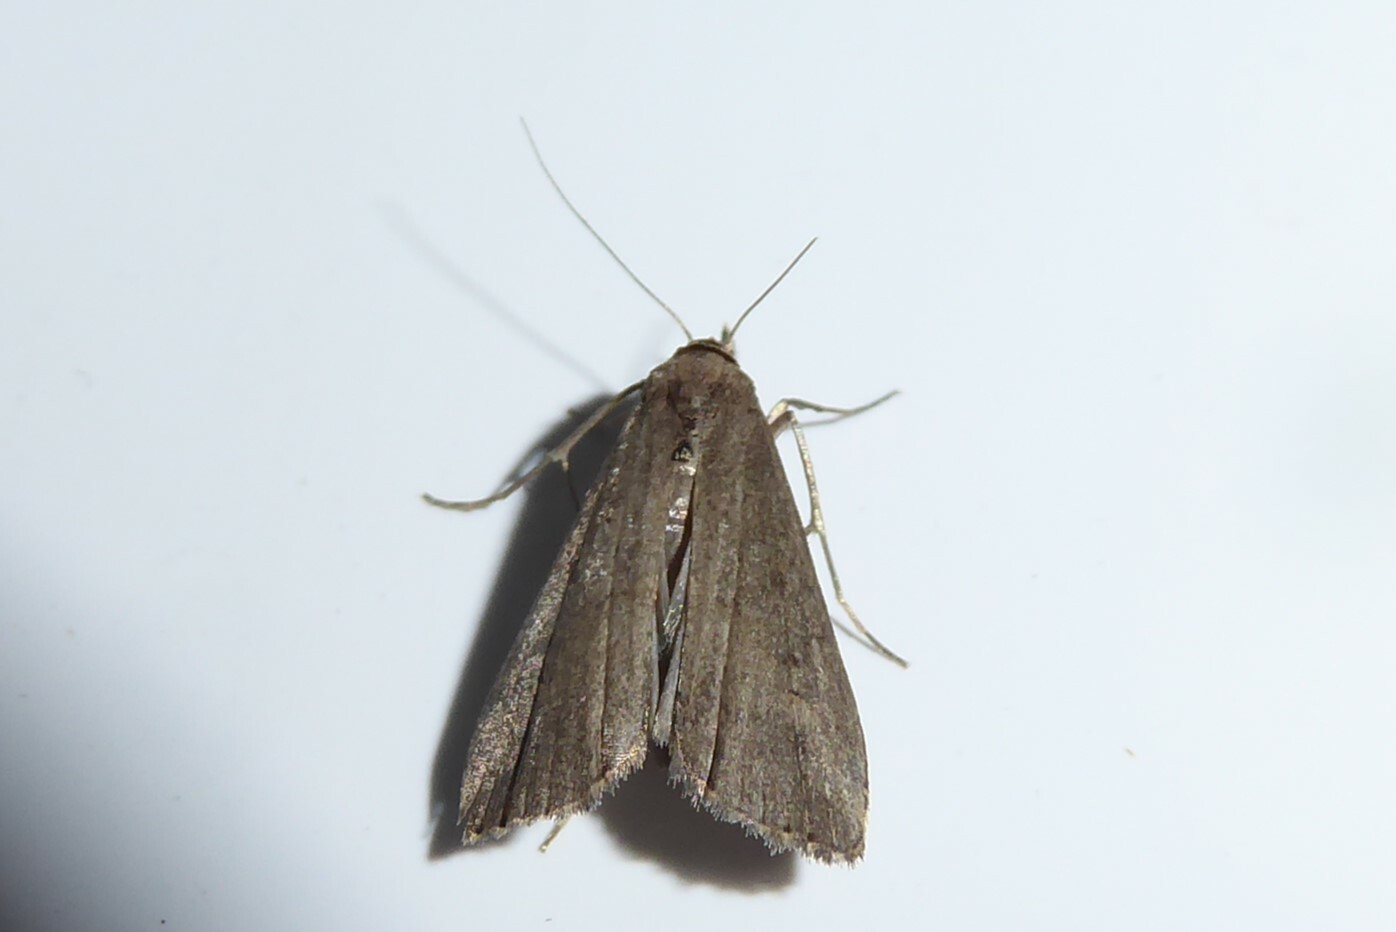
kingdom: Animalia
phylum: Arthropoda
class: Insecta
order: Lepidoptera
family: Erebidae
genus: Schrankia
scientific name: Schrankia costaestrigalis
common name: Pinion-streaked snout
